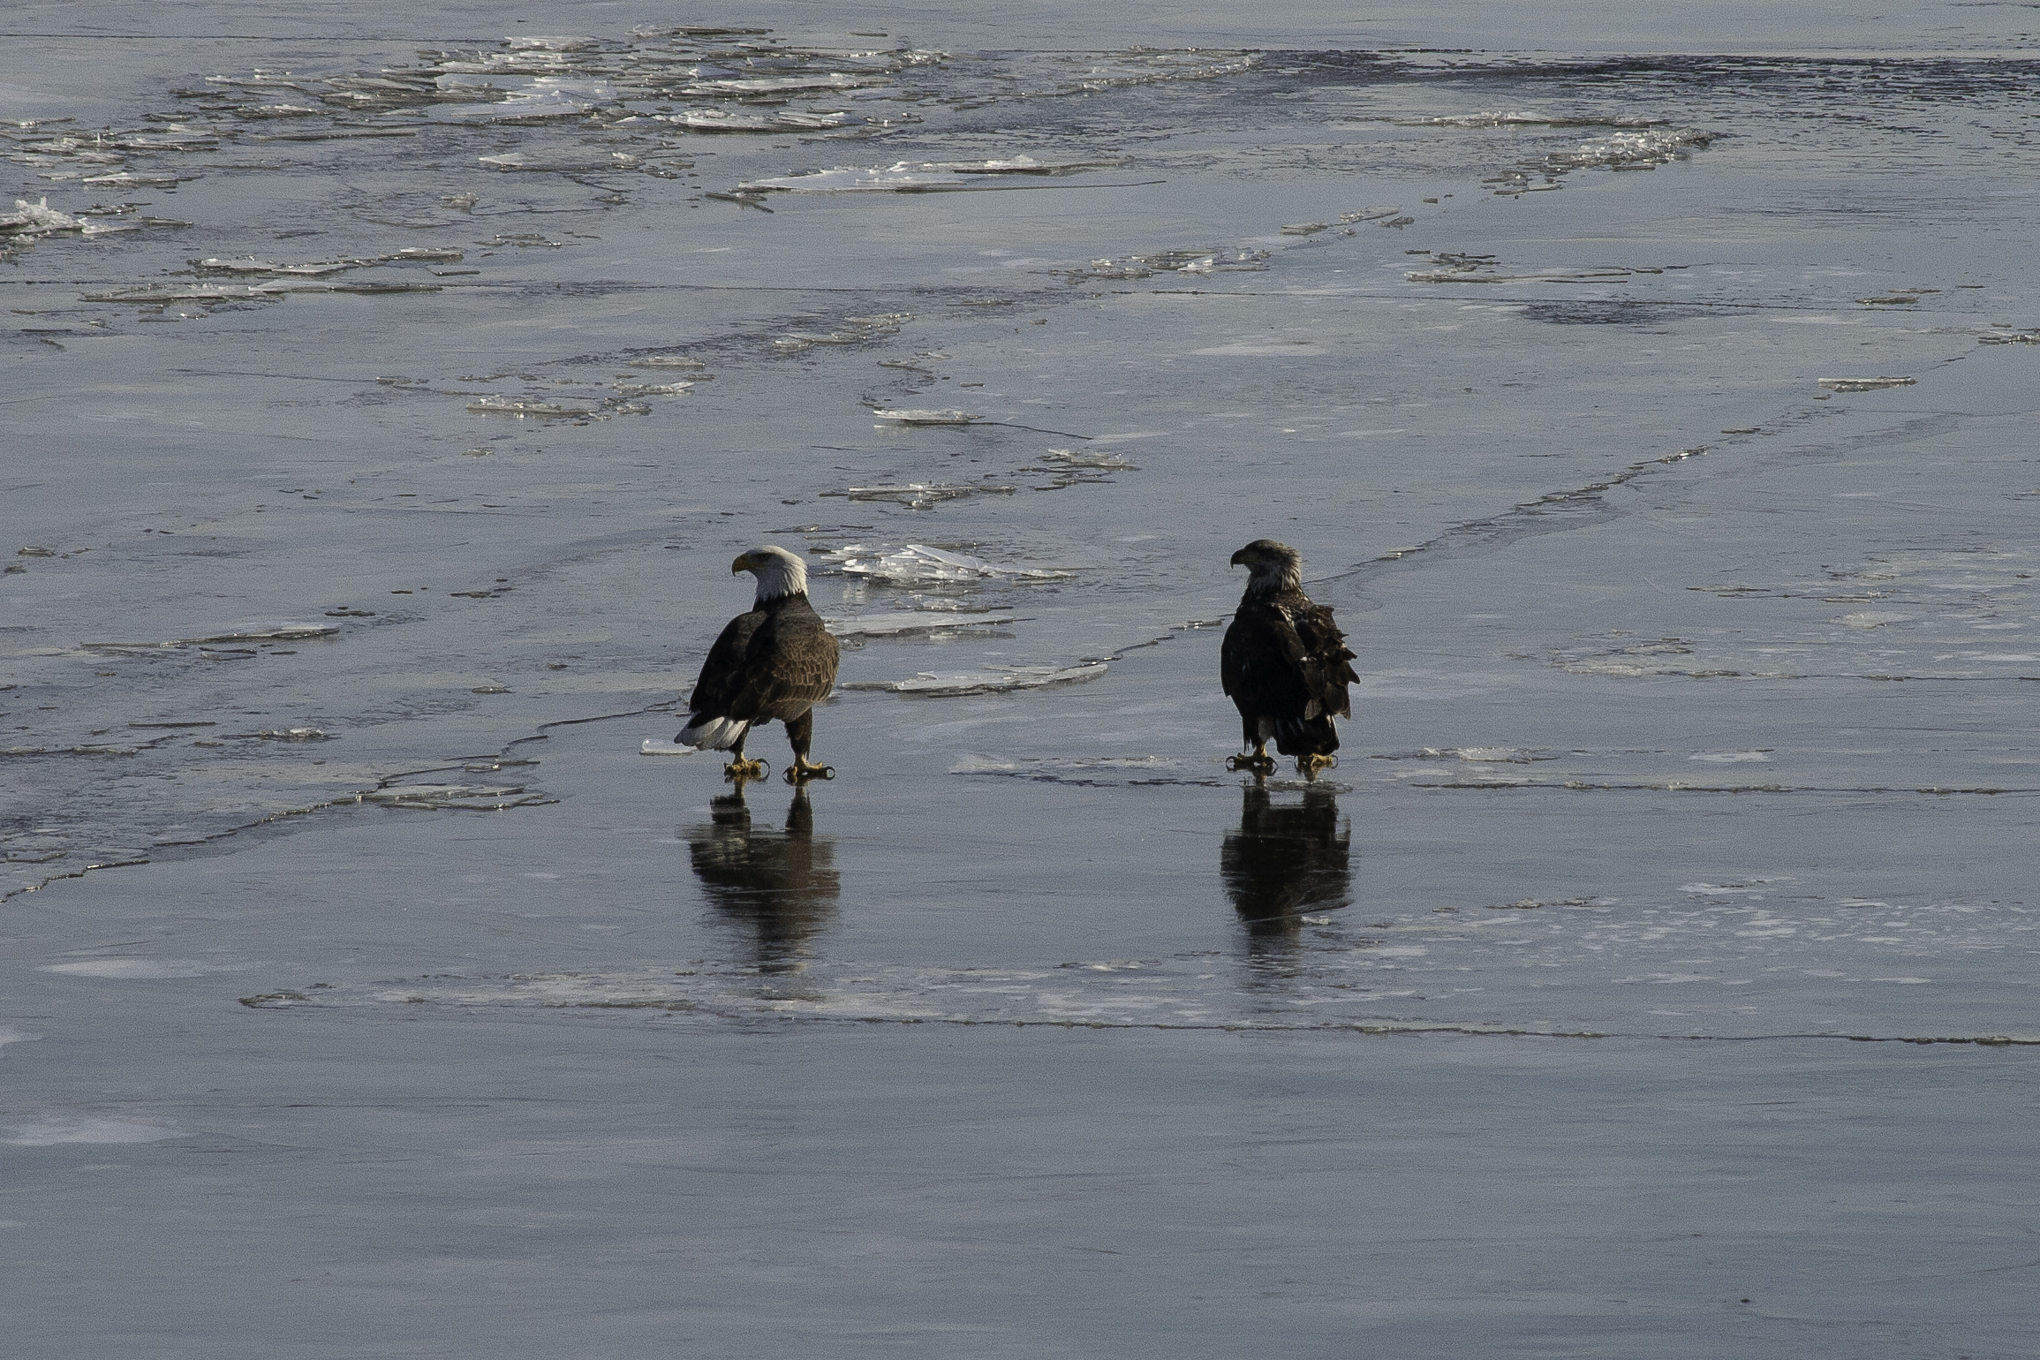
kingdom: Animalia
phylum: Chordata
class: Aves
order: Accipitriformes
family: Accipitridae
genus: Haliaeetus
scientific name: Haliaeetus leucocephalus
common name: Bald eagle
